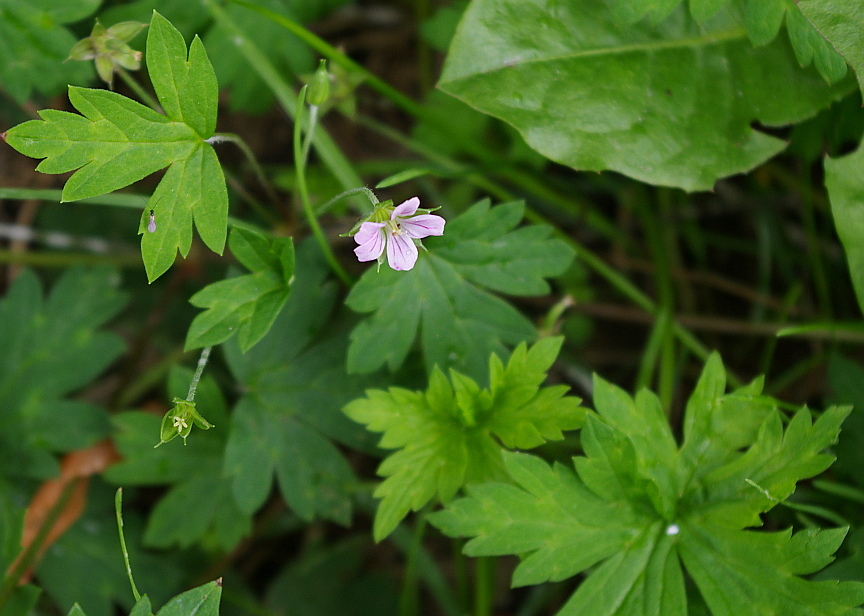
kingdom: Plantae
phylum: Tracheophyta
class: Magnoliopsida
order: Geraniales
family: Geraniaceae
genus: Geranium
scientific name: Geranium sibiricum
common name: Siberian crane's-bill
